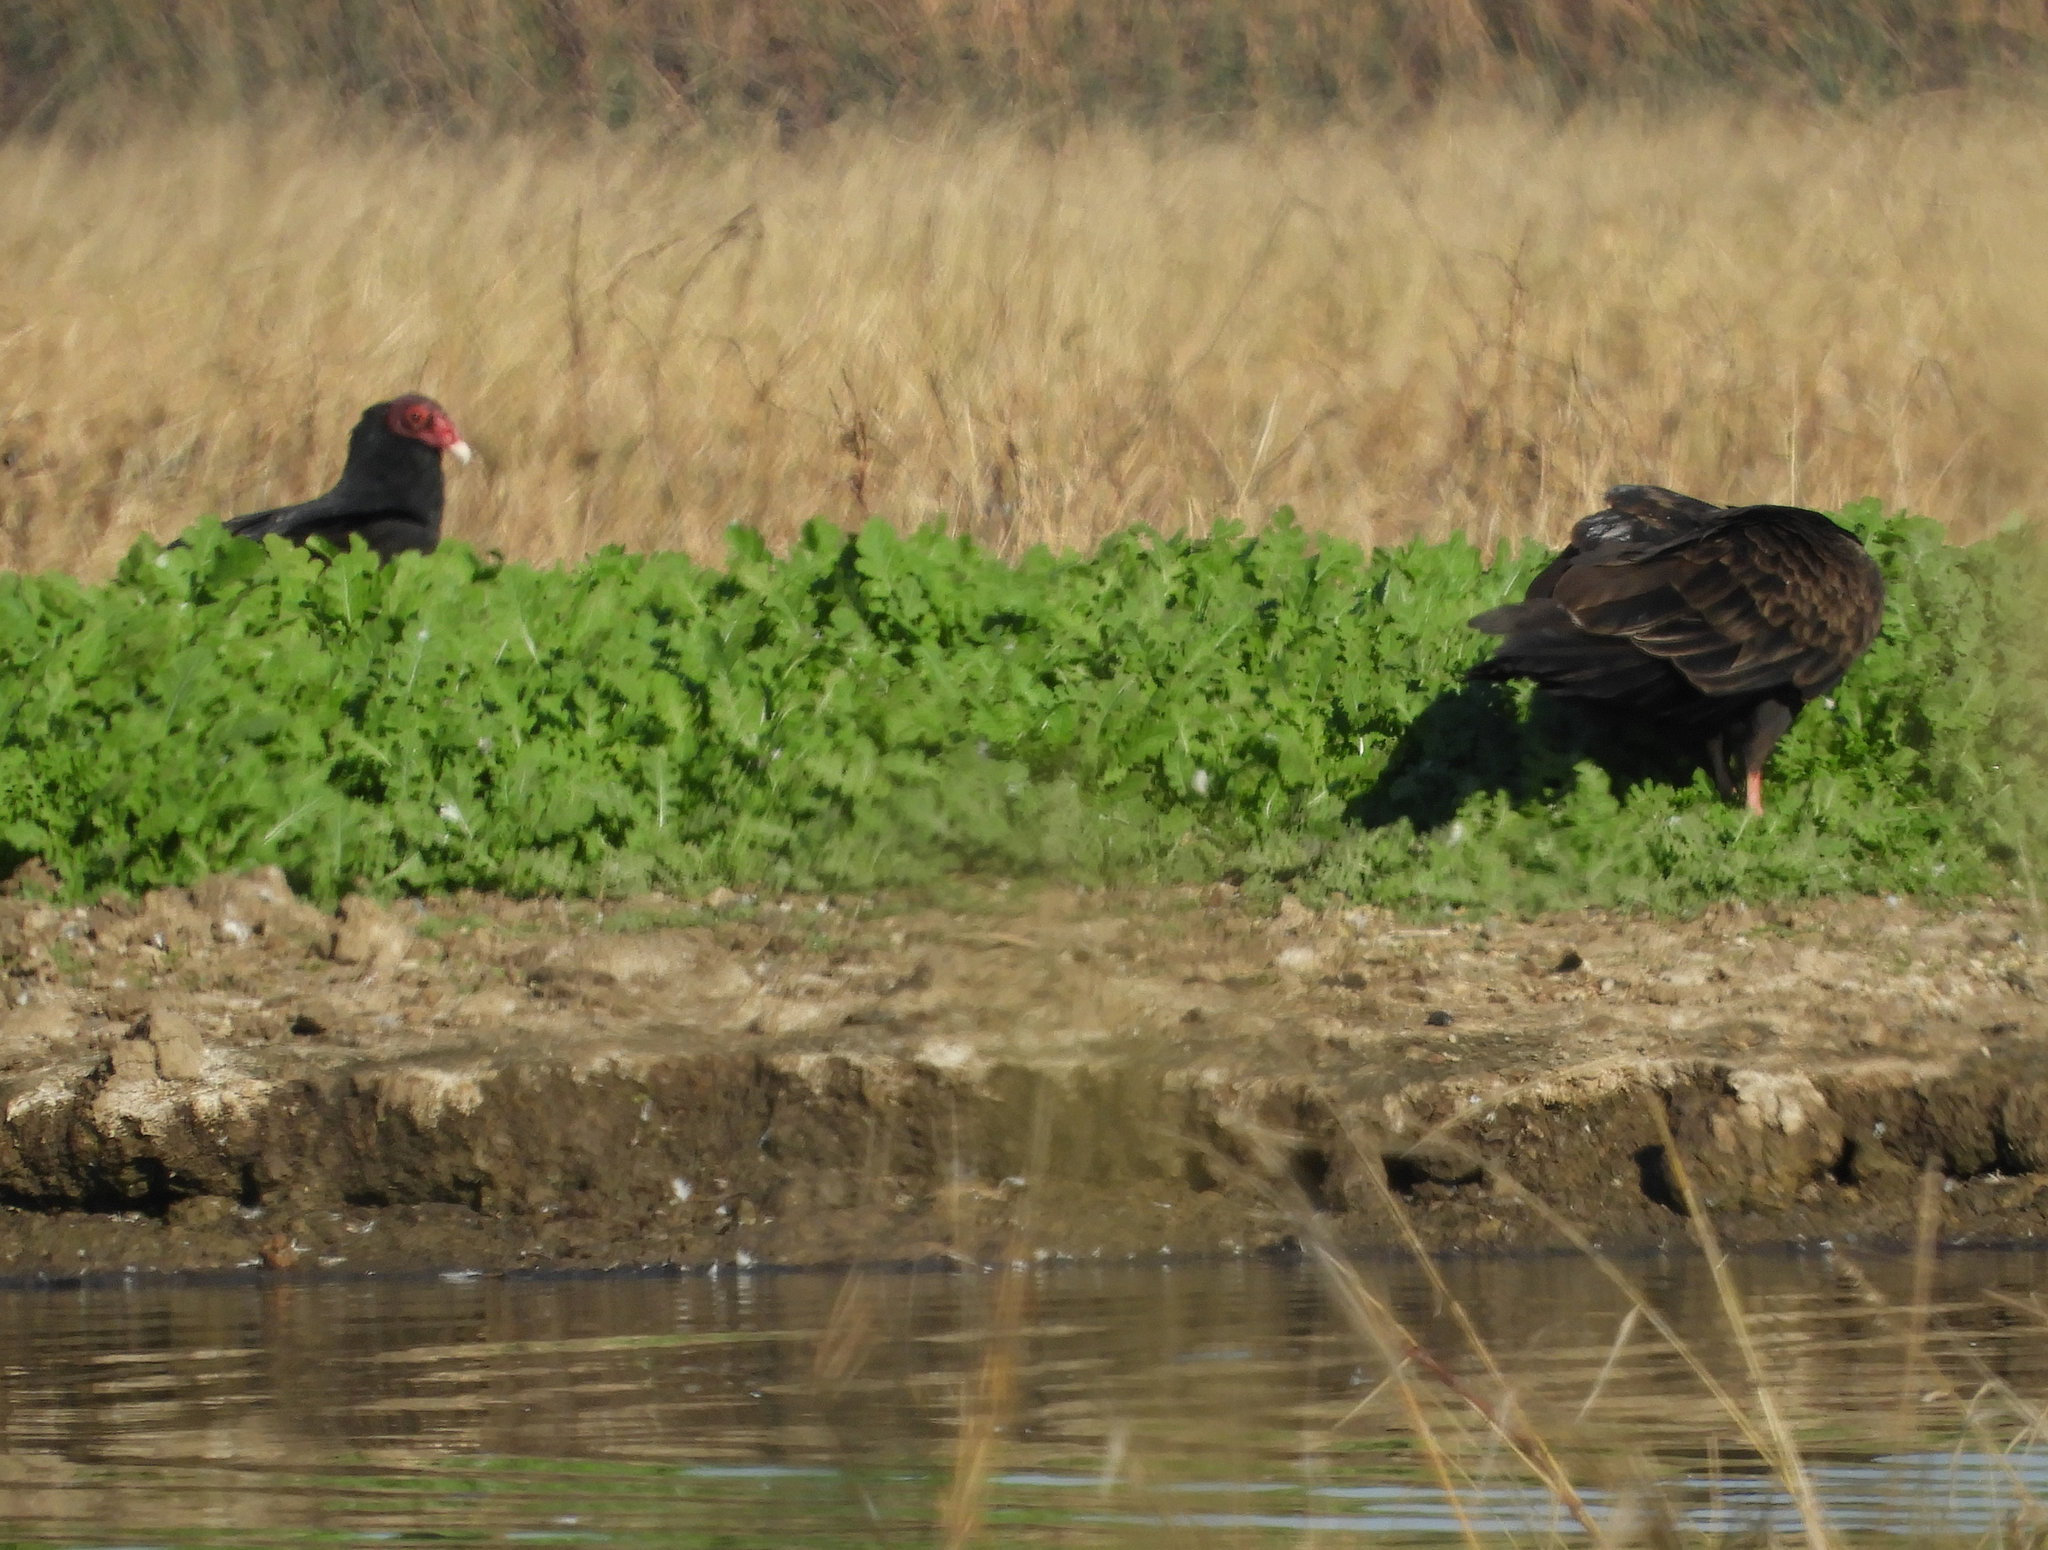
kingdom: Animalia
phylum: Chordata
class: Aves
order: Accipitriformes
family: Cathartidae
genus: Cathartes
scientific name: Cathartes aura
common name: Turkey vulture
